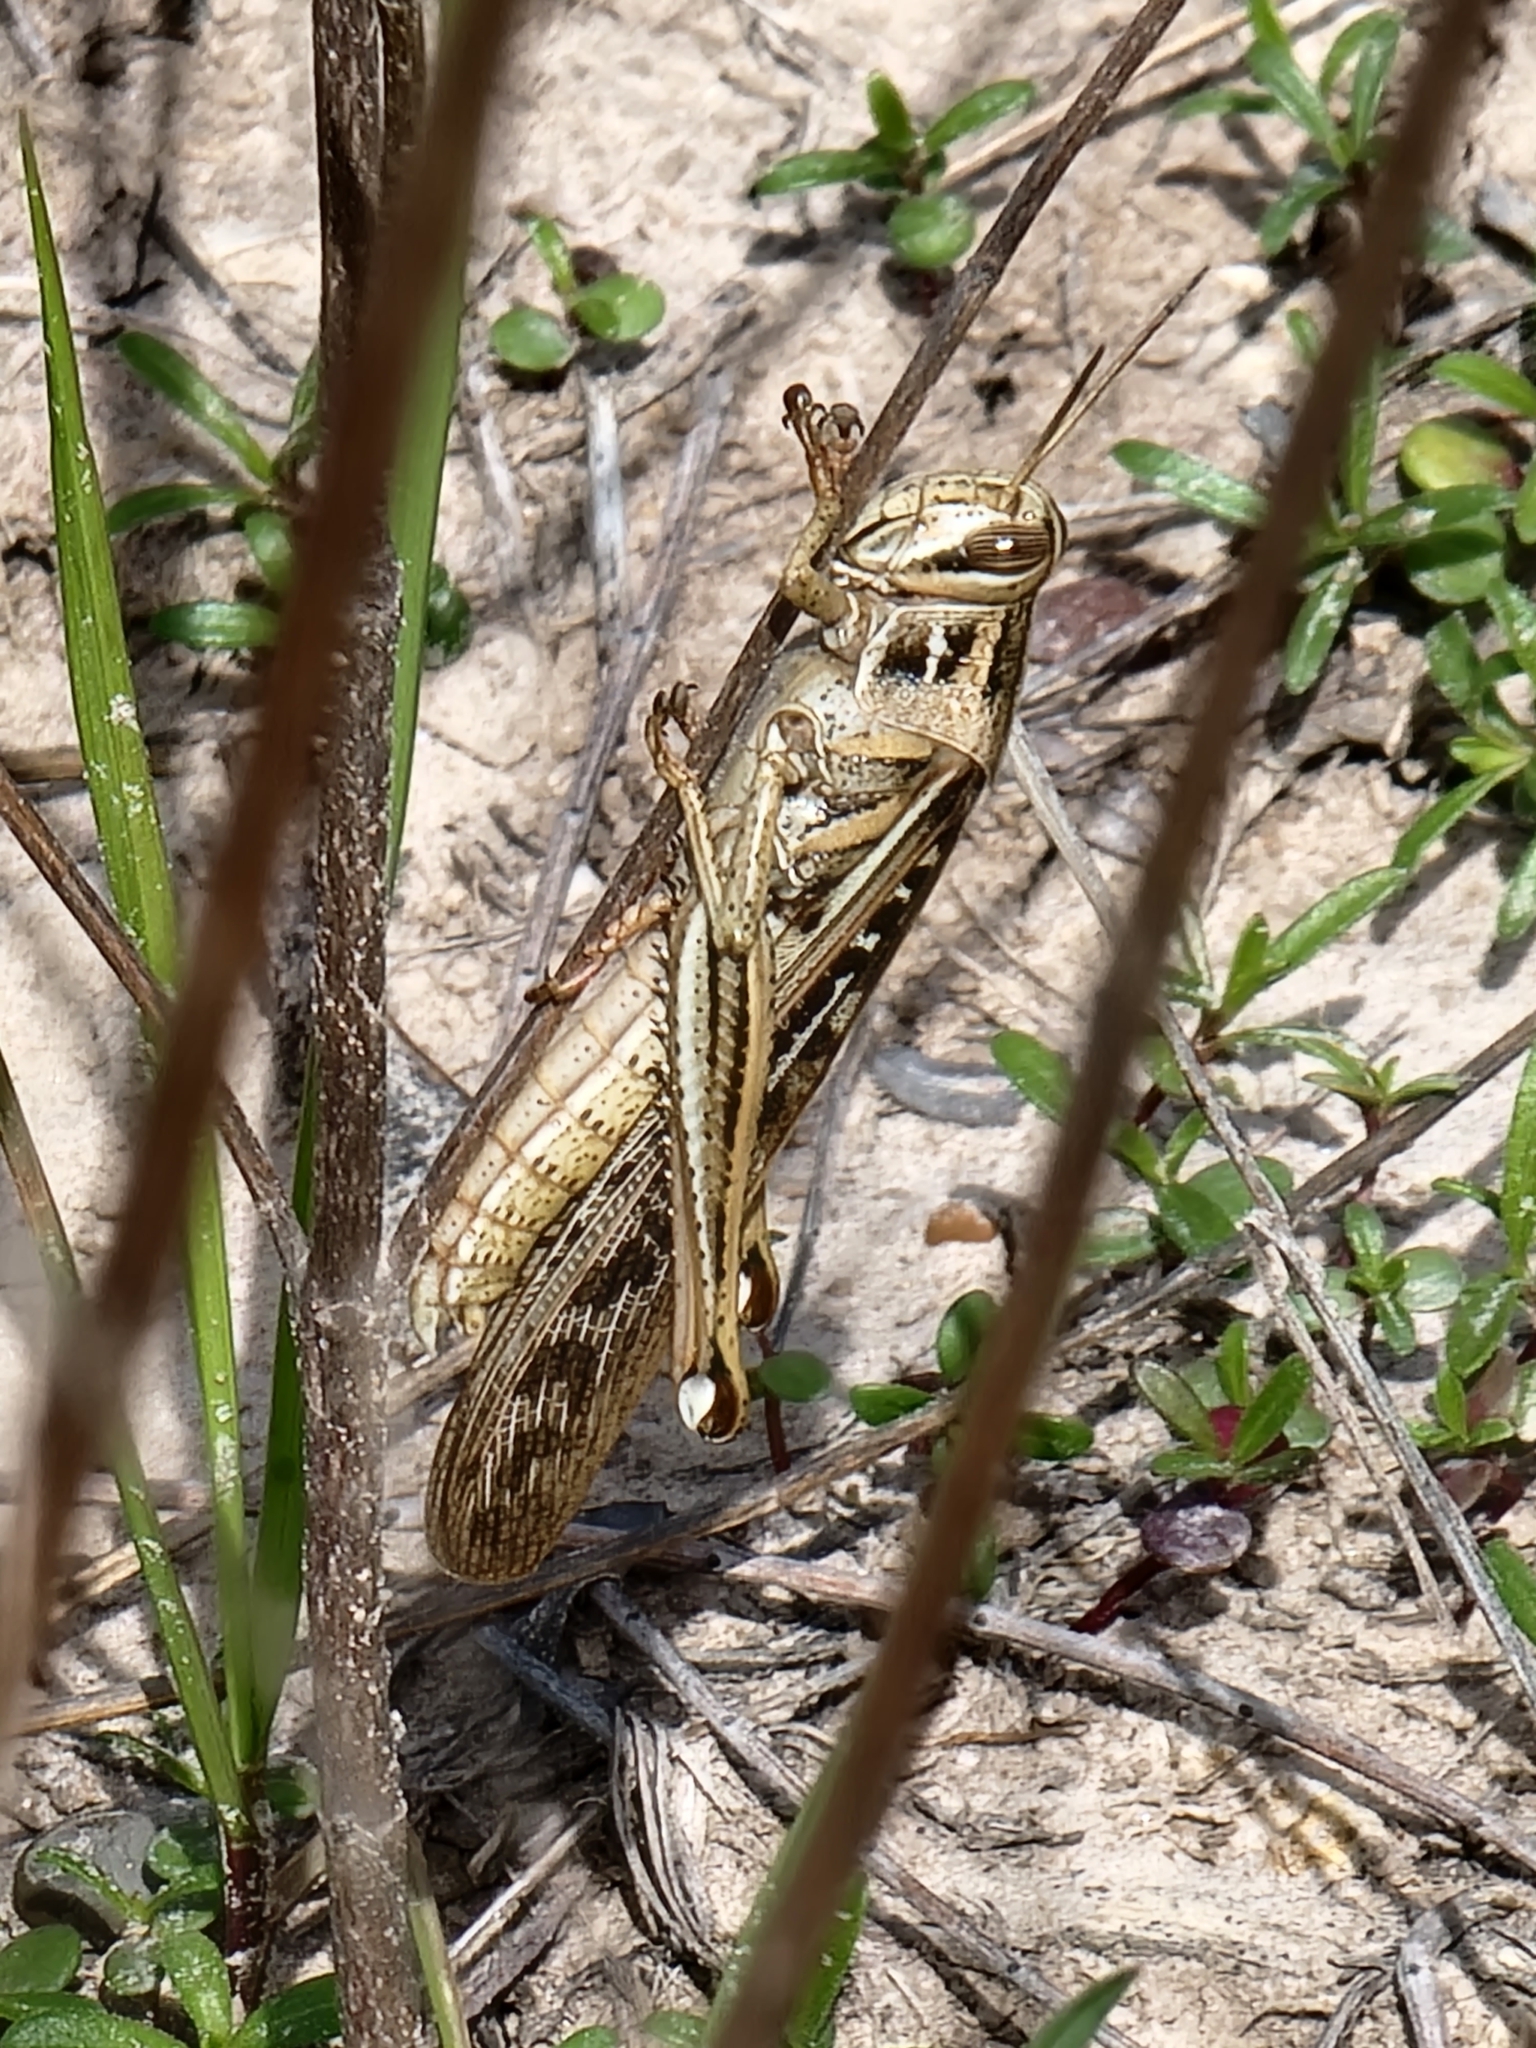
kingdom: Animalia
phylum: Arthropoda
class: Insecta
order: Orthoptera
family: Acrididae
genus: Schistocerca
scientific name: Schistocerca americana
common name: American bird locust
